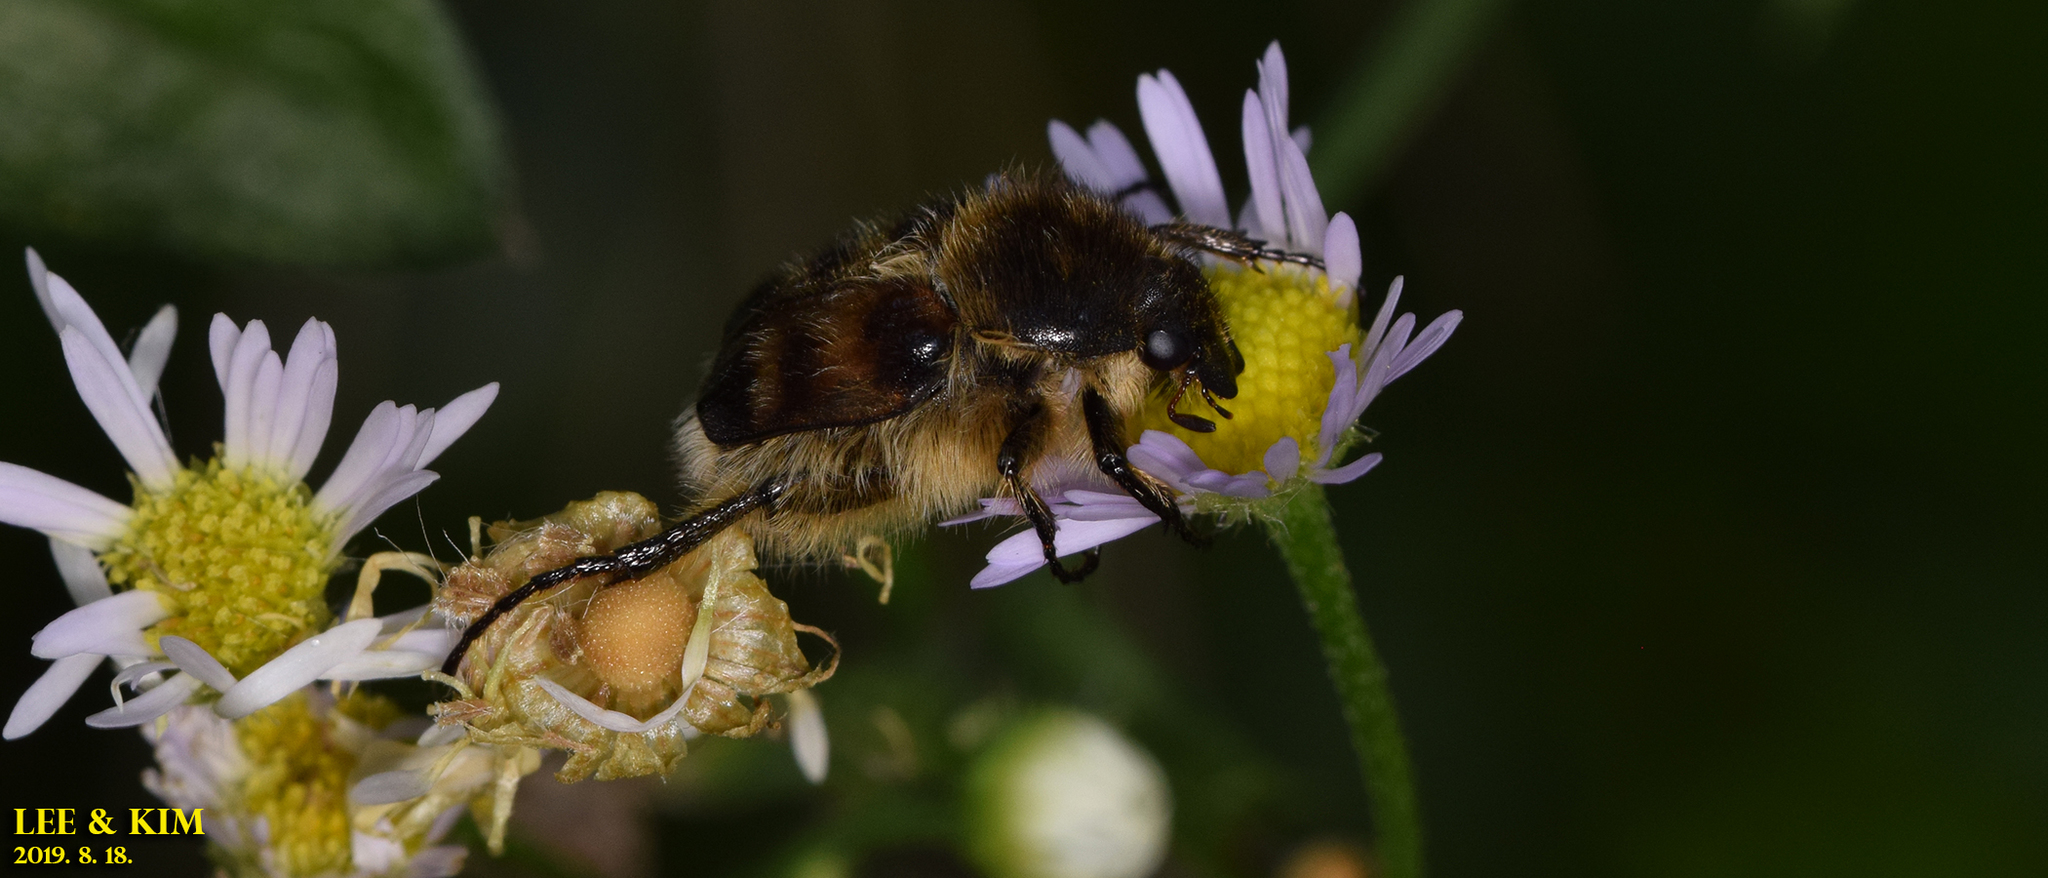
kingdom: Animalia
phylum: Arthropoda
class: Insecta
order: Coleoptera
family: Scarabaeidae
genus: Lasiotrichius
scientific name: Lasiotrichius succinctus
